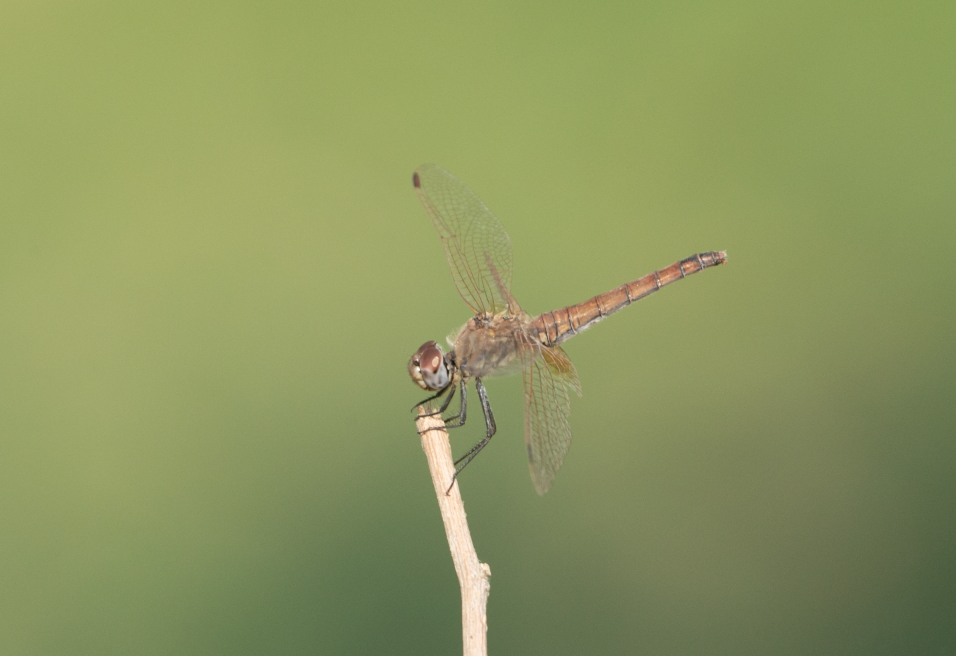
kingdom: Animalia
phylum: Arthropoda
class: Insecta
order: Odonata
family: Libellulidae
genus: Trithemis
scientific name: Trithemis annulata
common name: Violet dropwing
